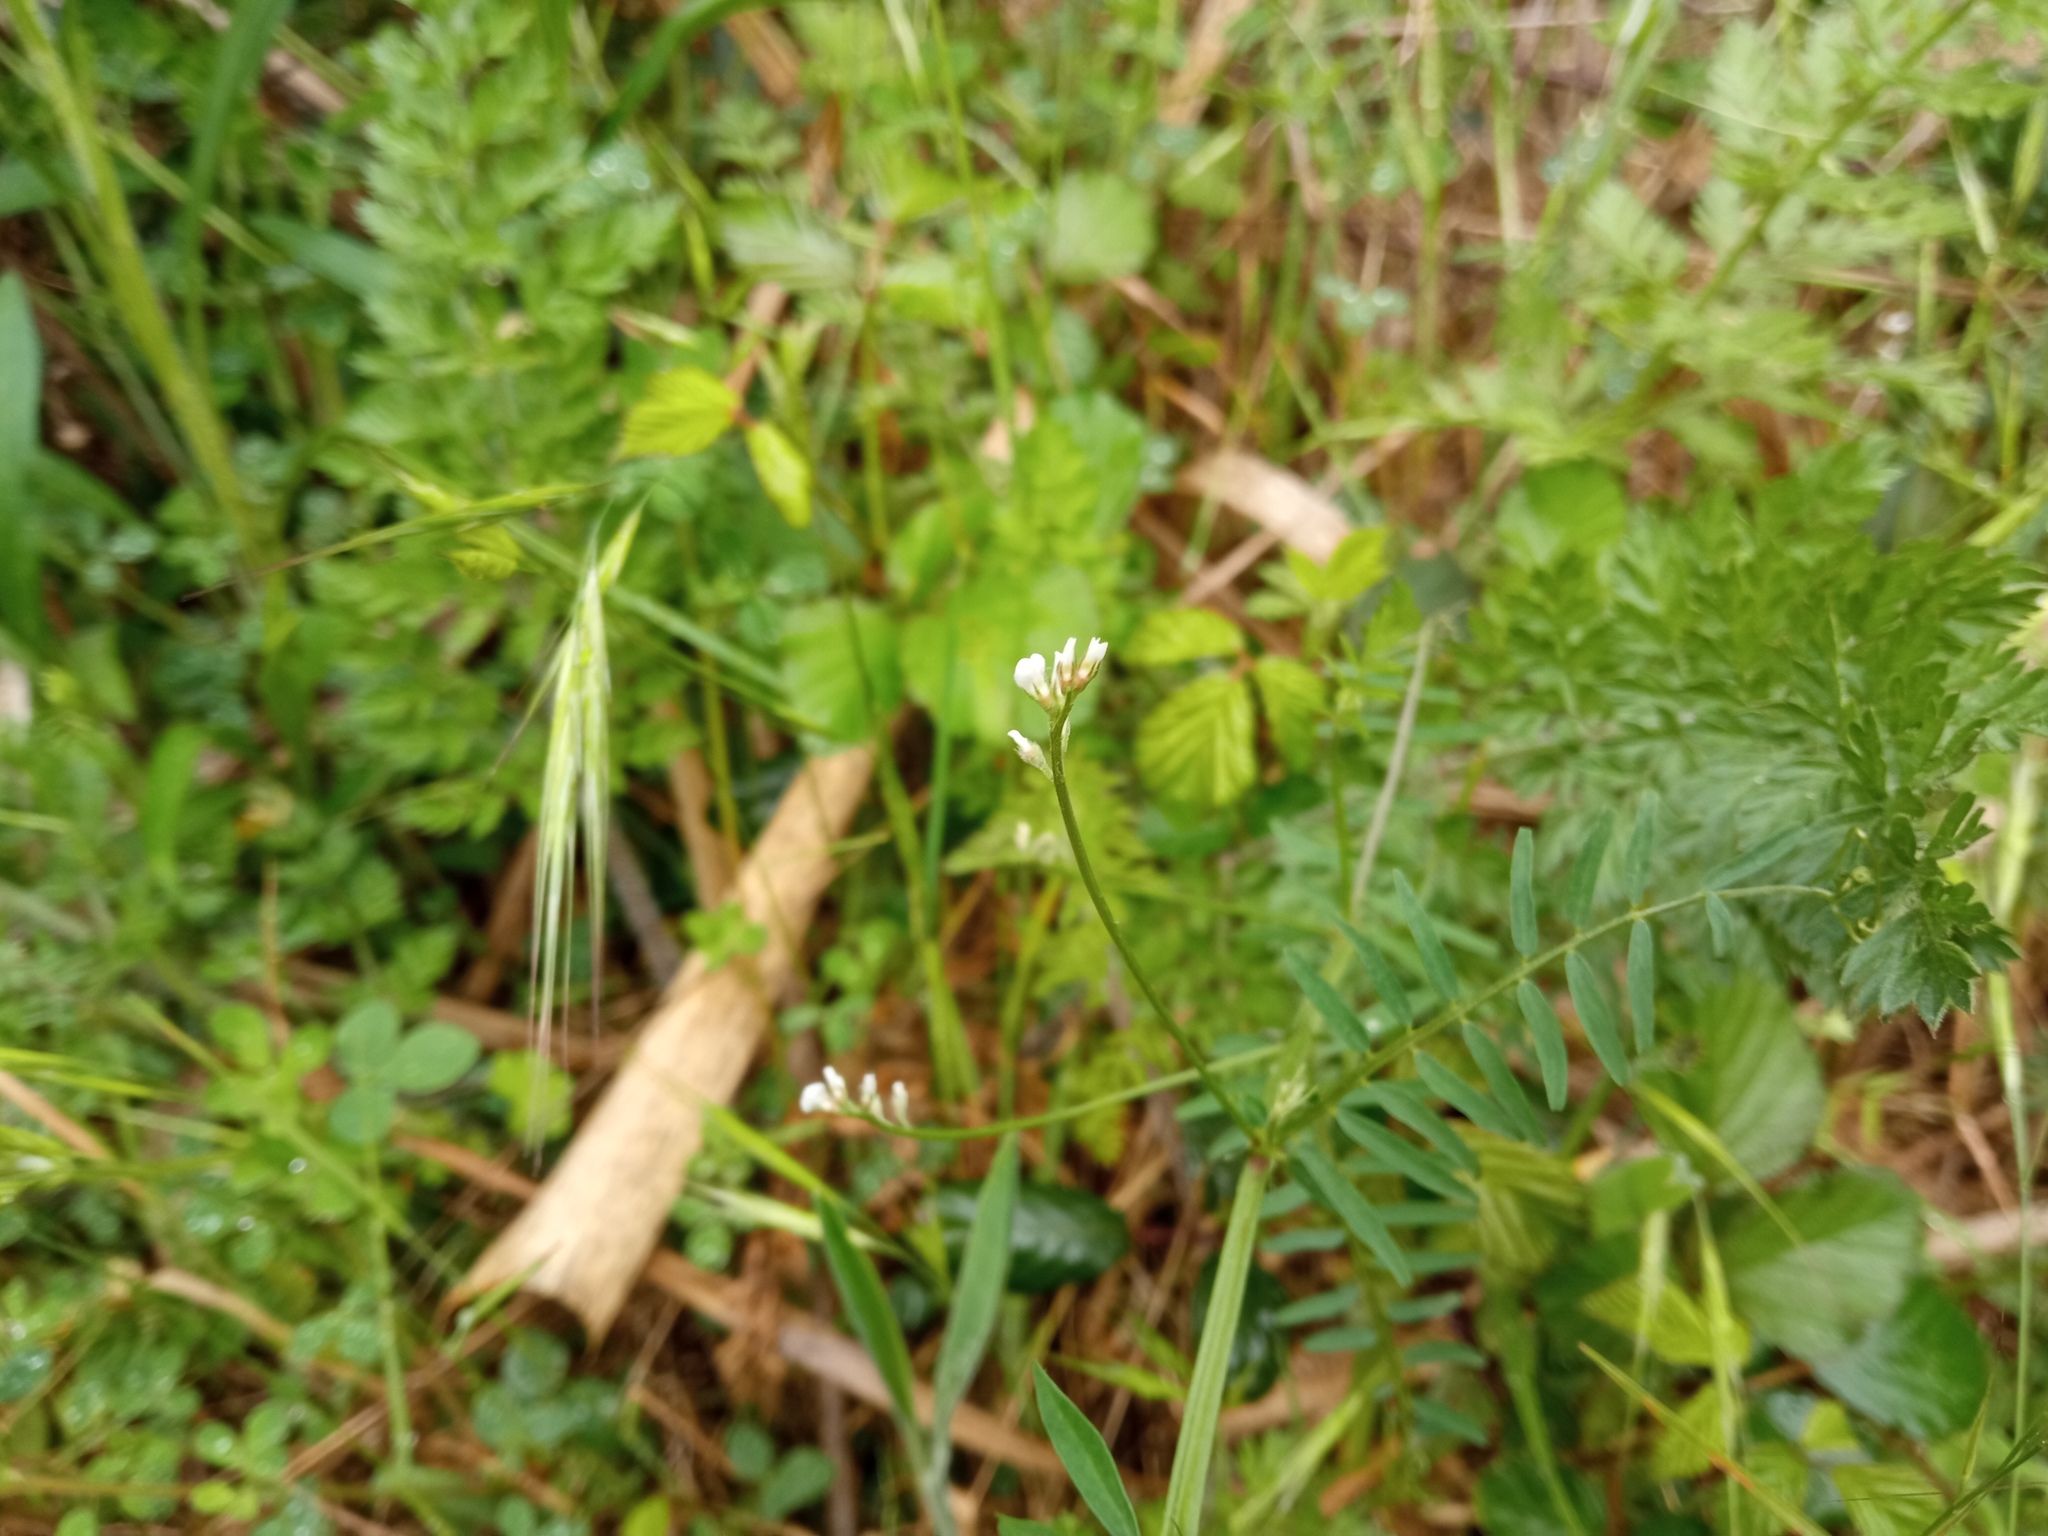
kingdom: Plantae
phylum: Tracheophyta
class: Magnoliopsida
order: Fabales
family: Fabaceae
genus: Vicia
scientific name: Vicia hirsuta
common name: Tiny vetch
